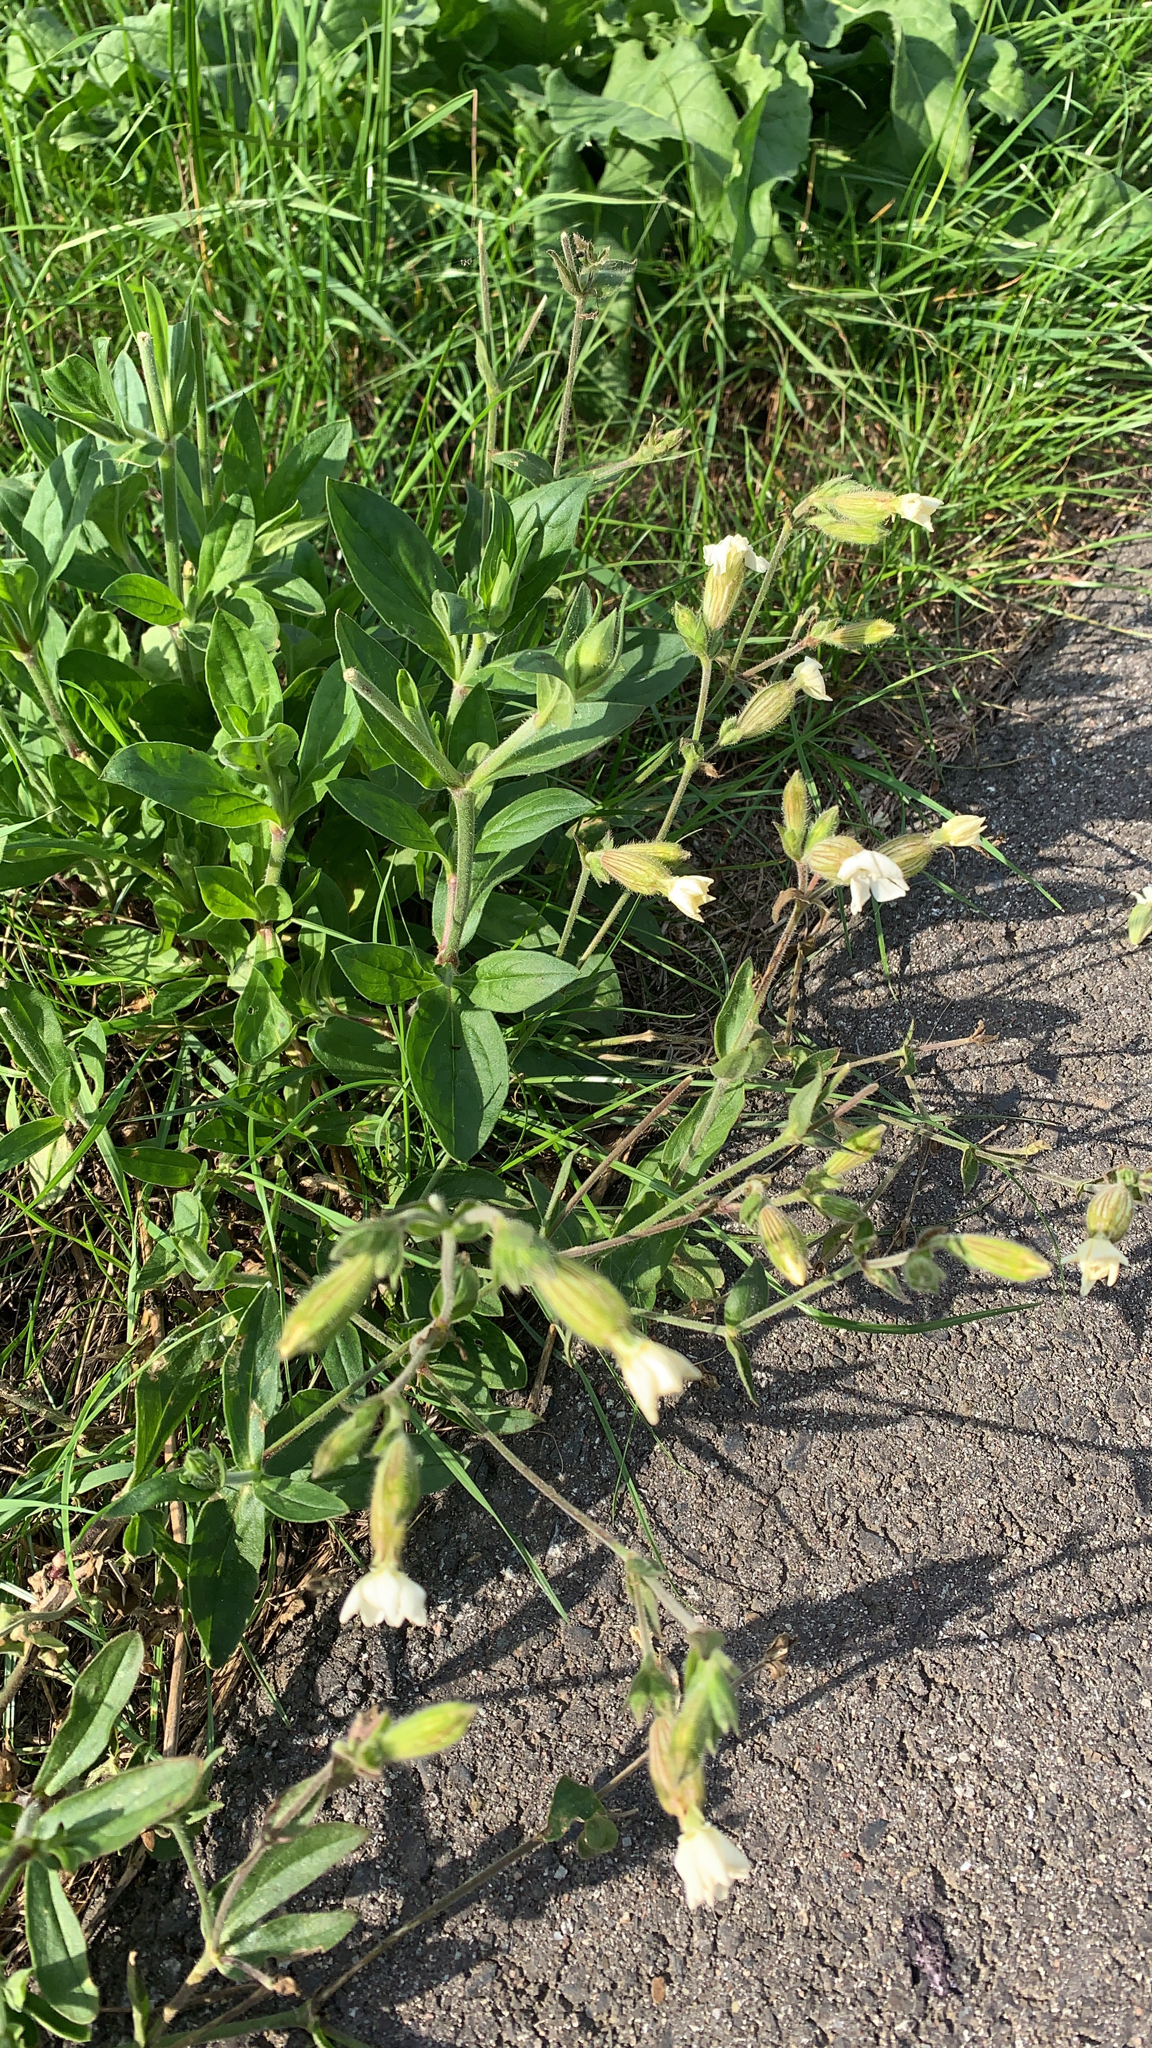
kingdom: Plantae
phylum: Tracheophyta
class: Magnoliopsida
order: Caryophyllales
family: Caryophyllaceae
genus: Silene
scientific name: Silene latifolia
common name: White campion
